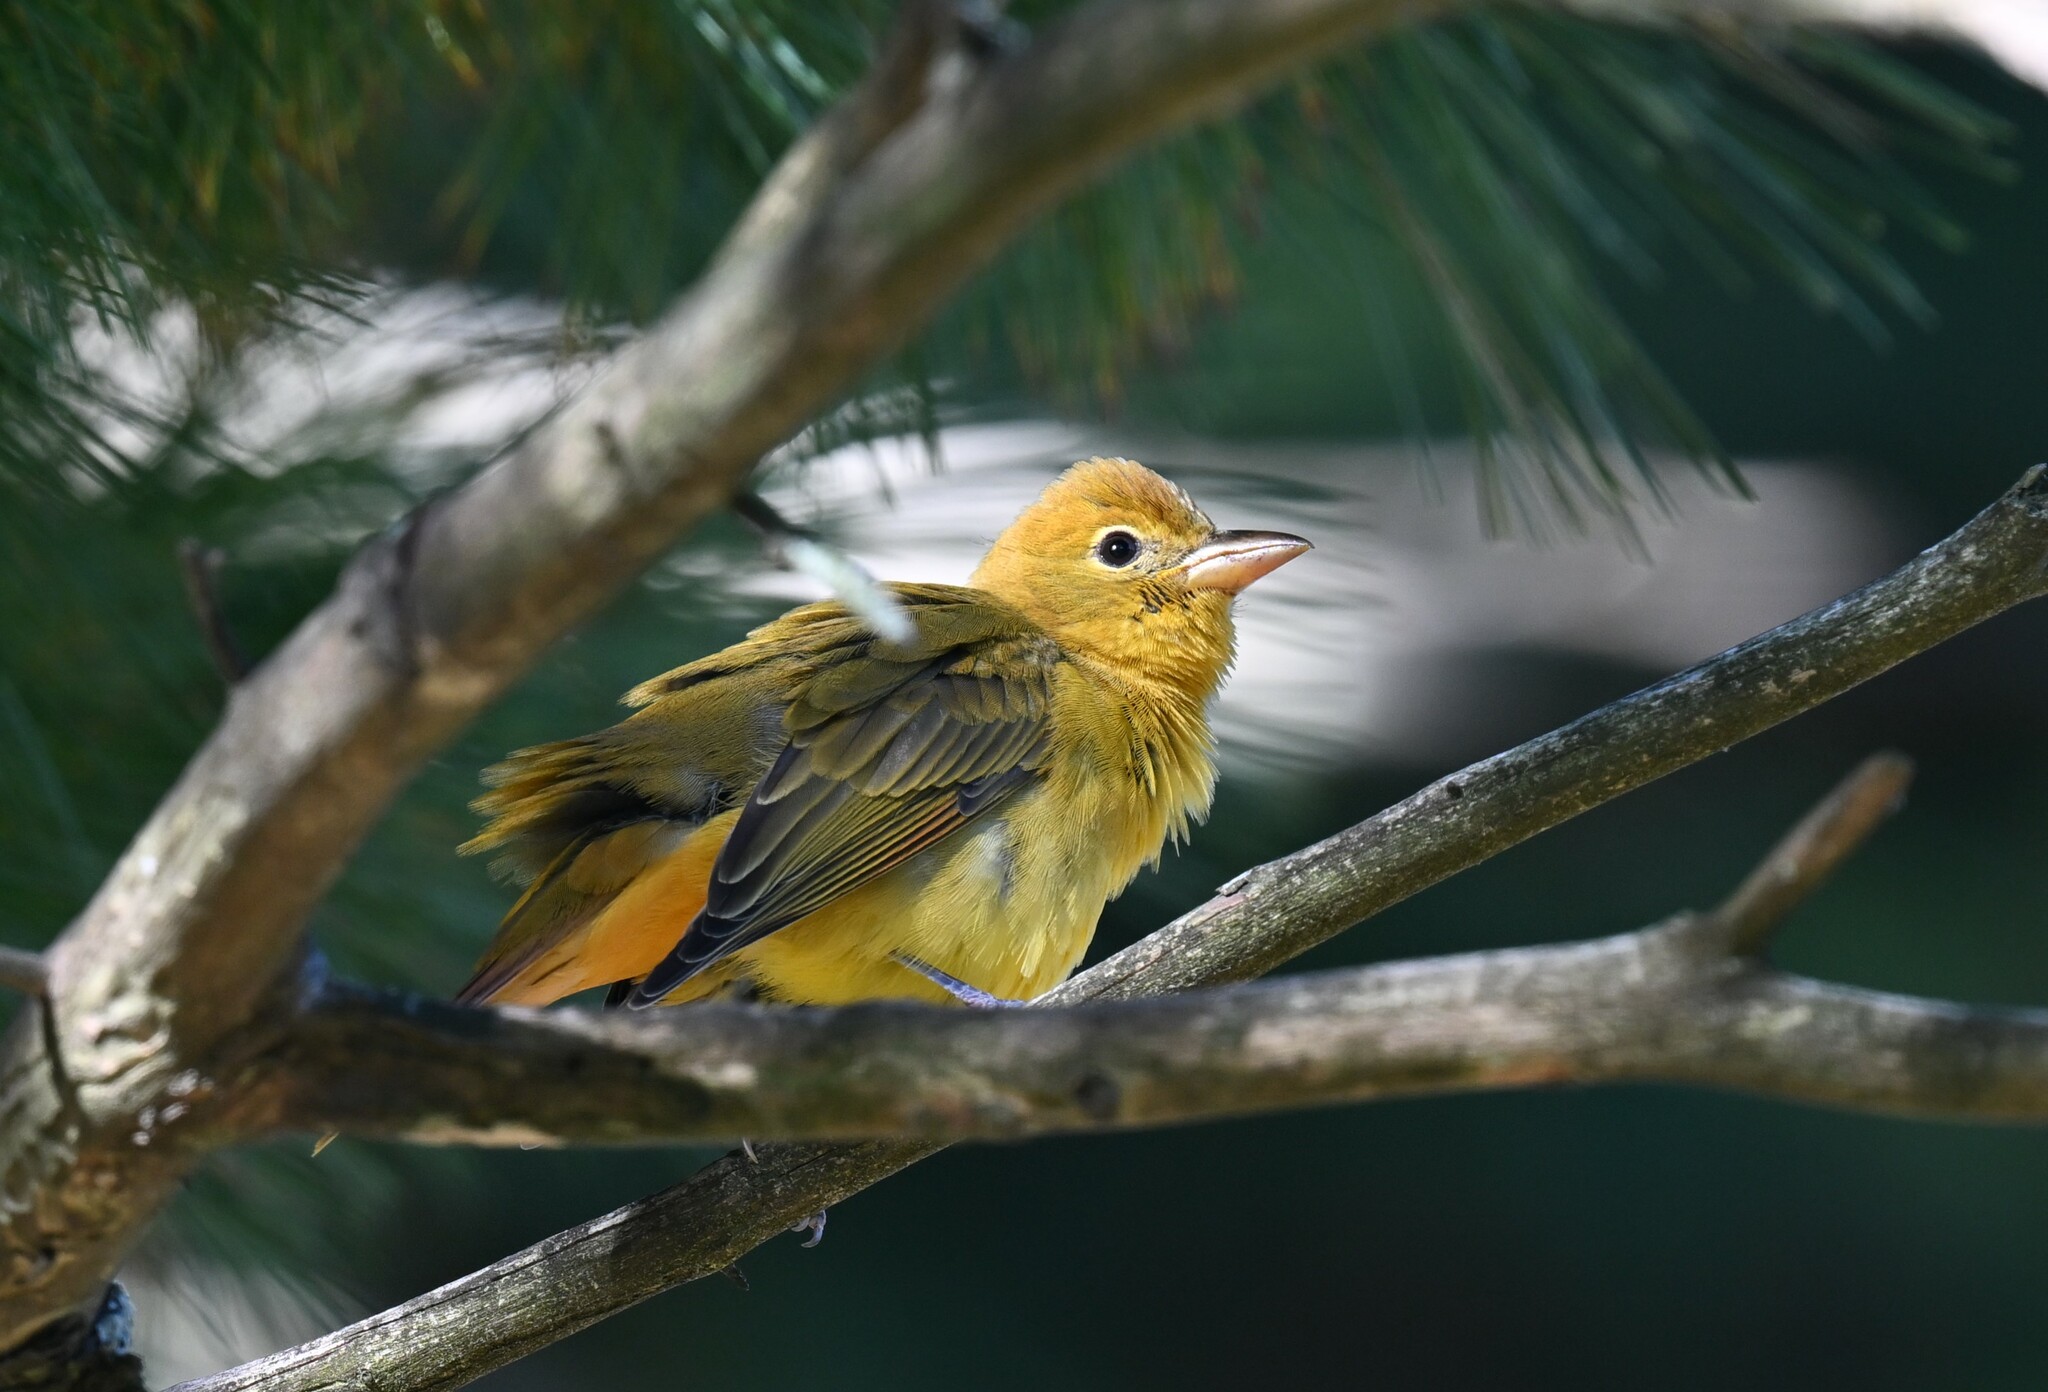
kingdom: Animalia
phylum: Chordata
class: Aves
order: Passeriformes
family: Cardinalidae
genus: Piranga
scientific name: Piranga rubra
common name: Summer tanager
